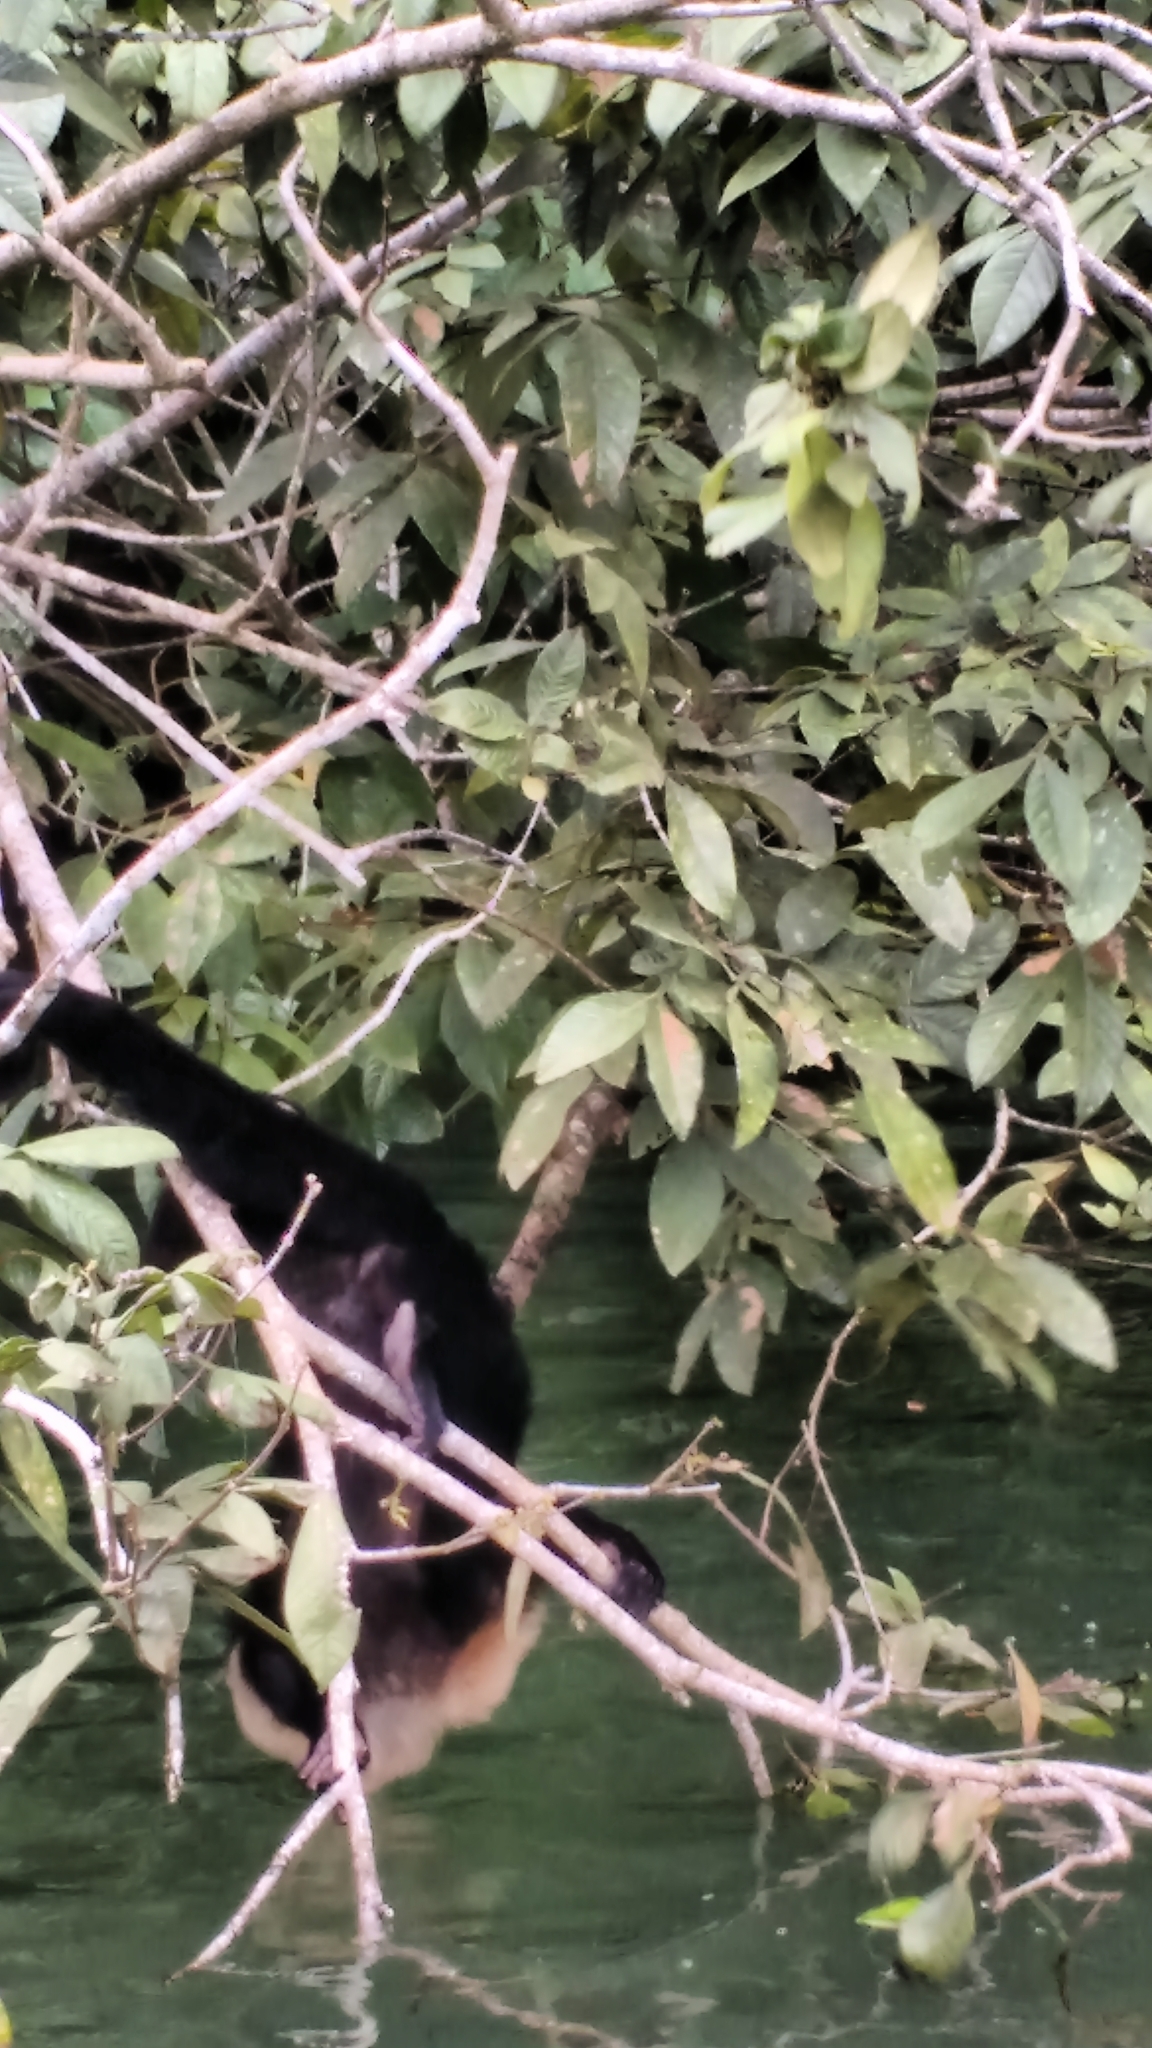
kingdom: Animalia
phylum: Chordata
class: Mammalia
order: Primates
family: Cebidae
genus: Cebus
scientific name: Cebus imitator
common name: Panamanian white-faced capuchin
